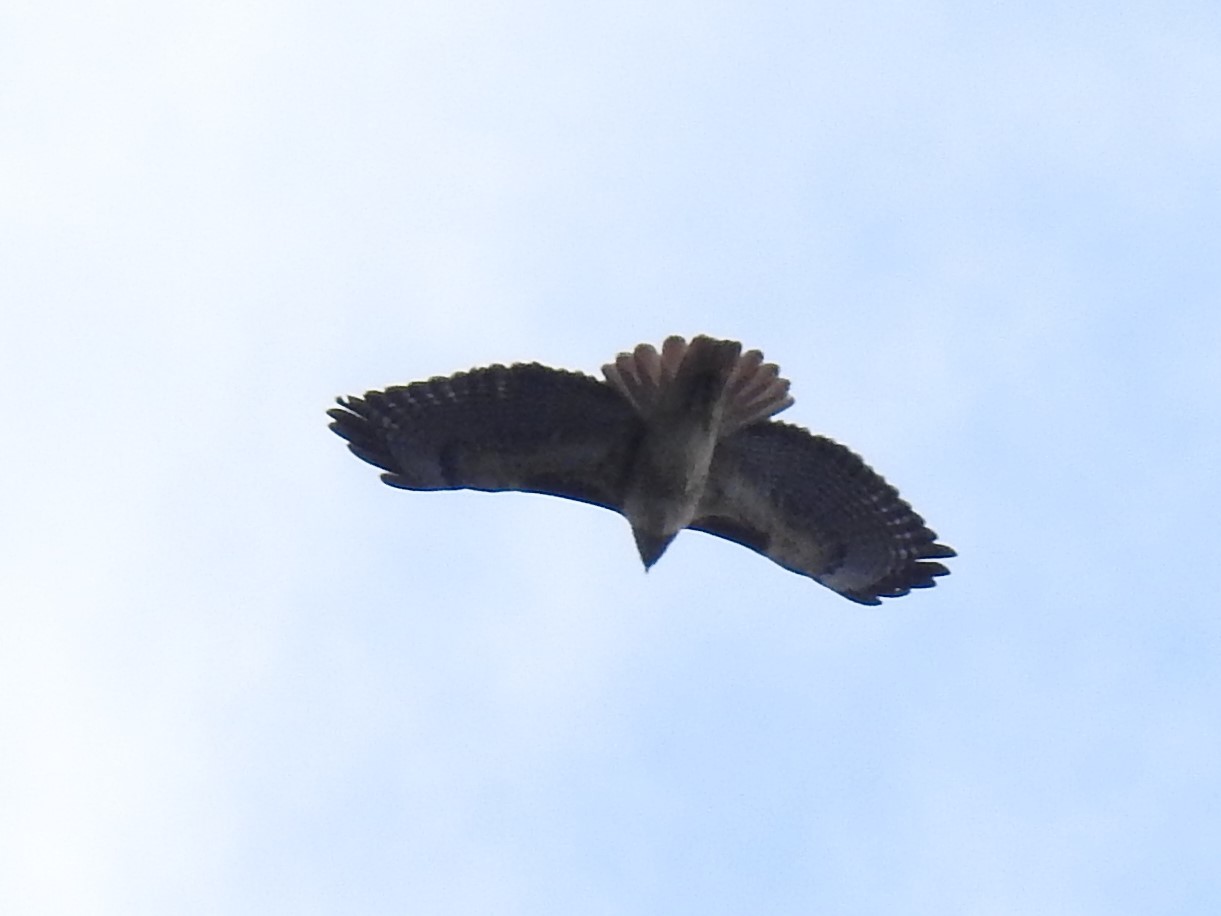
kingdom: Animalia
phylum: Chordata
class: Aves
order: Accipitriformes
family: Accipitridae
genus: Buteo
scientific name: Buteo jamaicensis
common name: Red-tailed hawk
